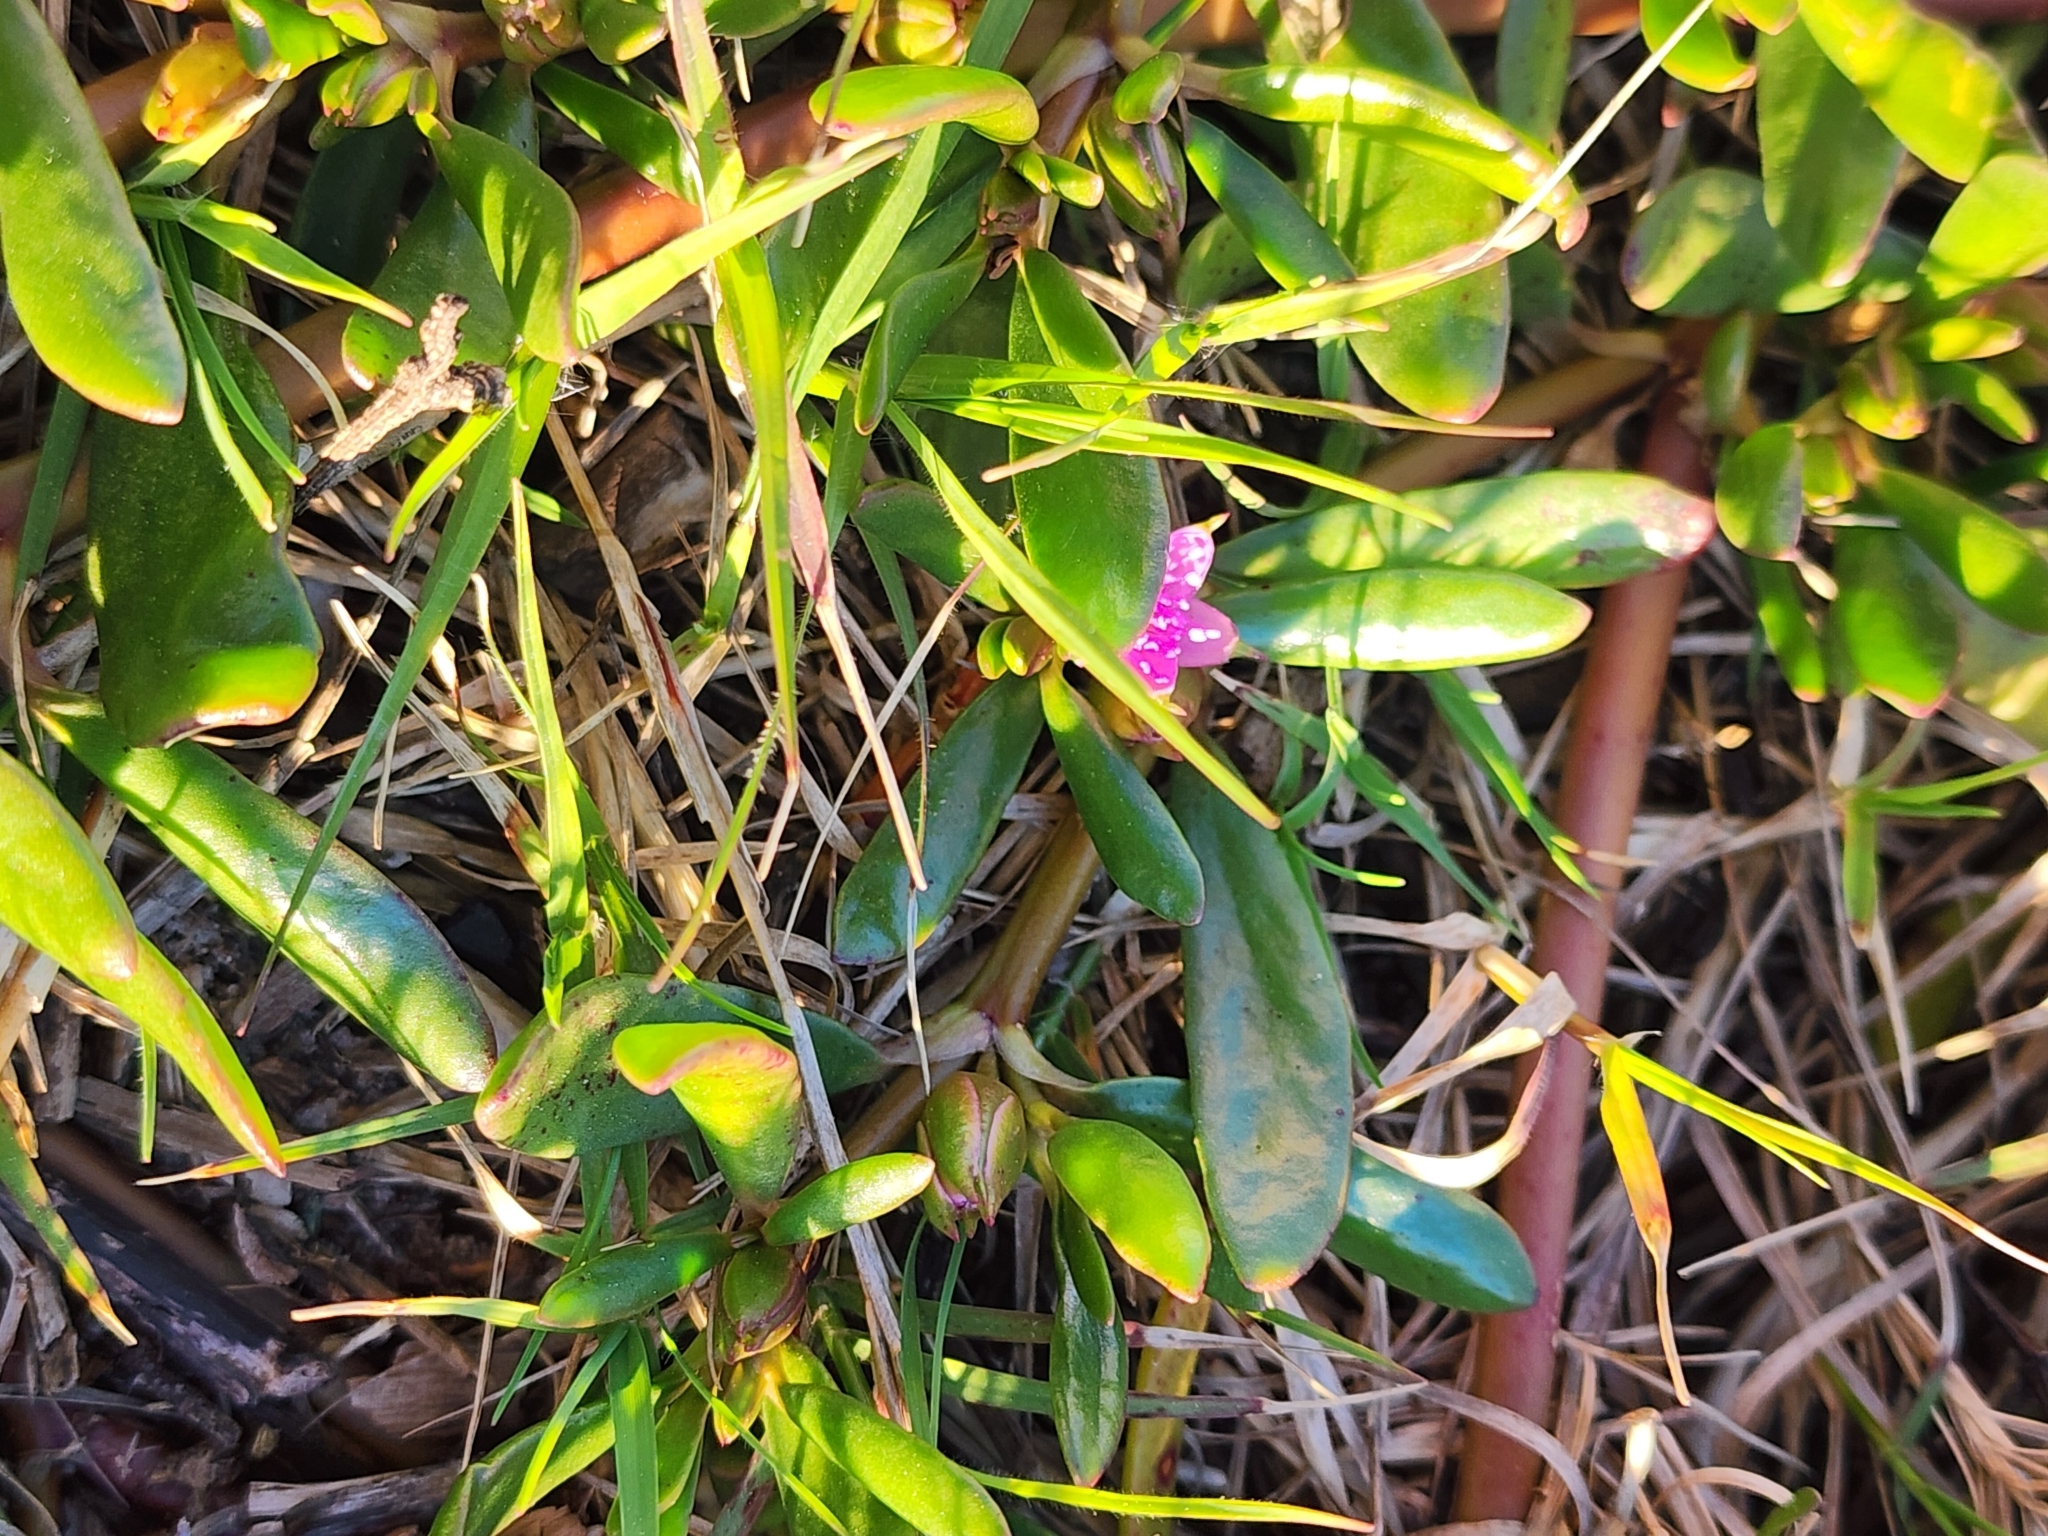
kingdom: Plantae
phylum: Tracheophyta
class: Magnoliopsida
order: Caryophyllales
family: Aizoaceae
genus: Sesuvium
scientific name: Sesuvium portulacastrum
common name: Sea-purslane
